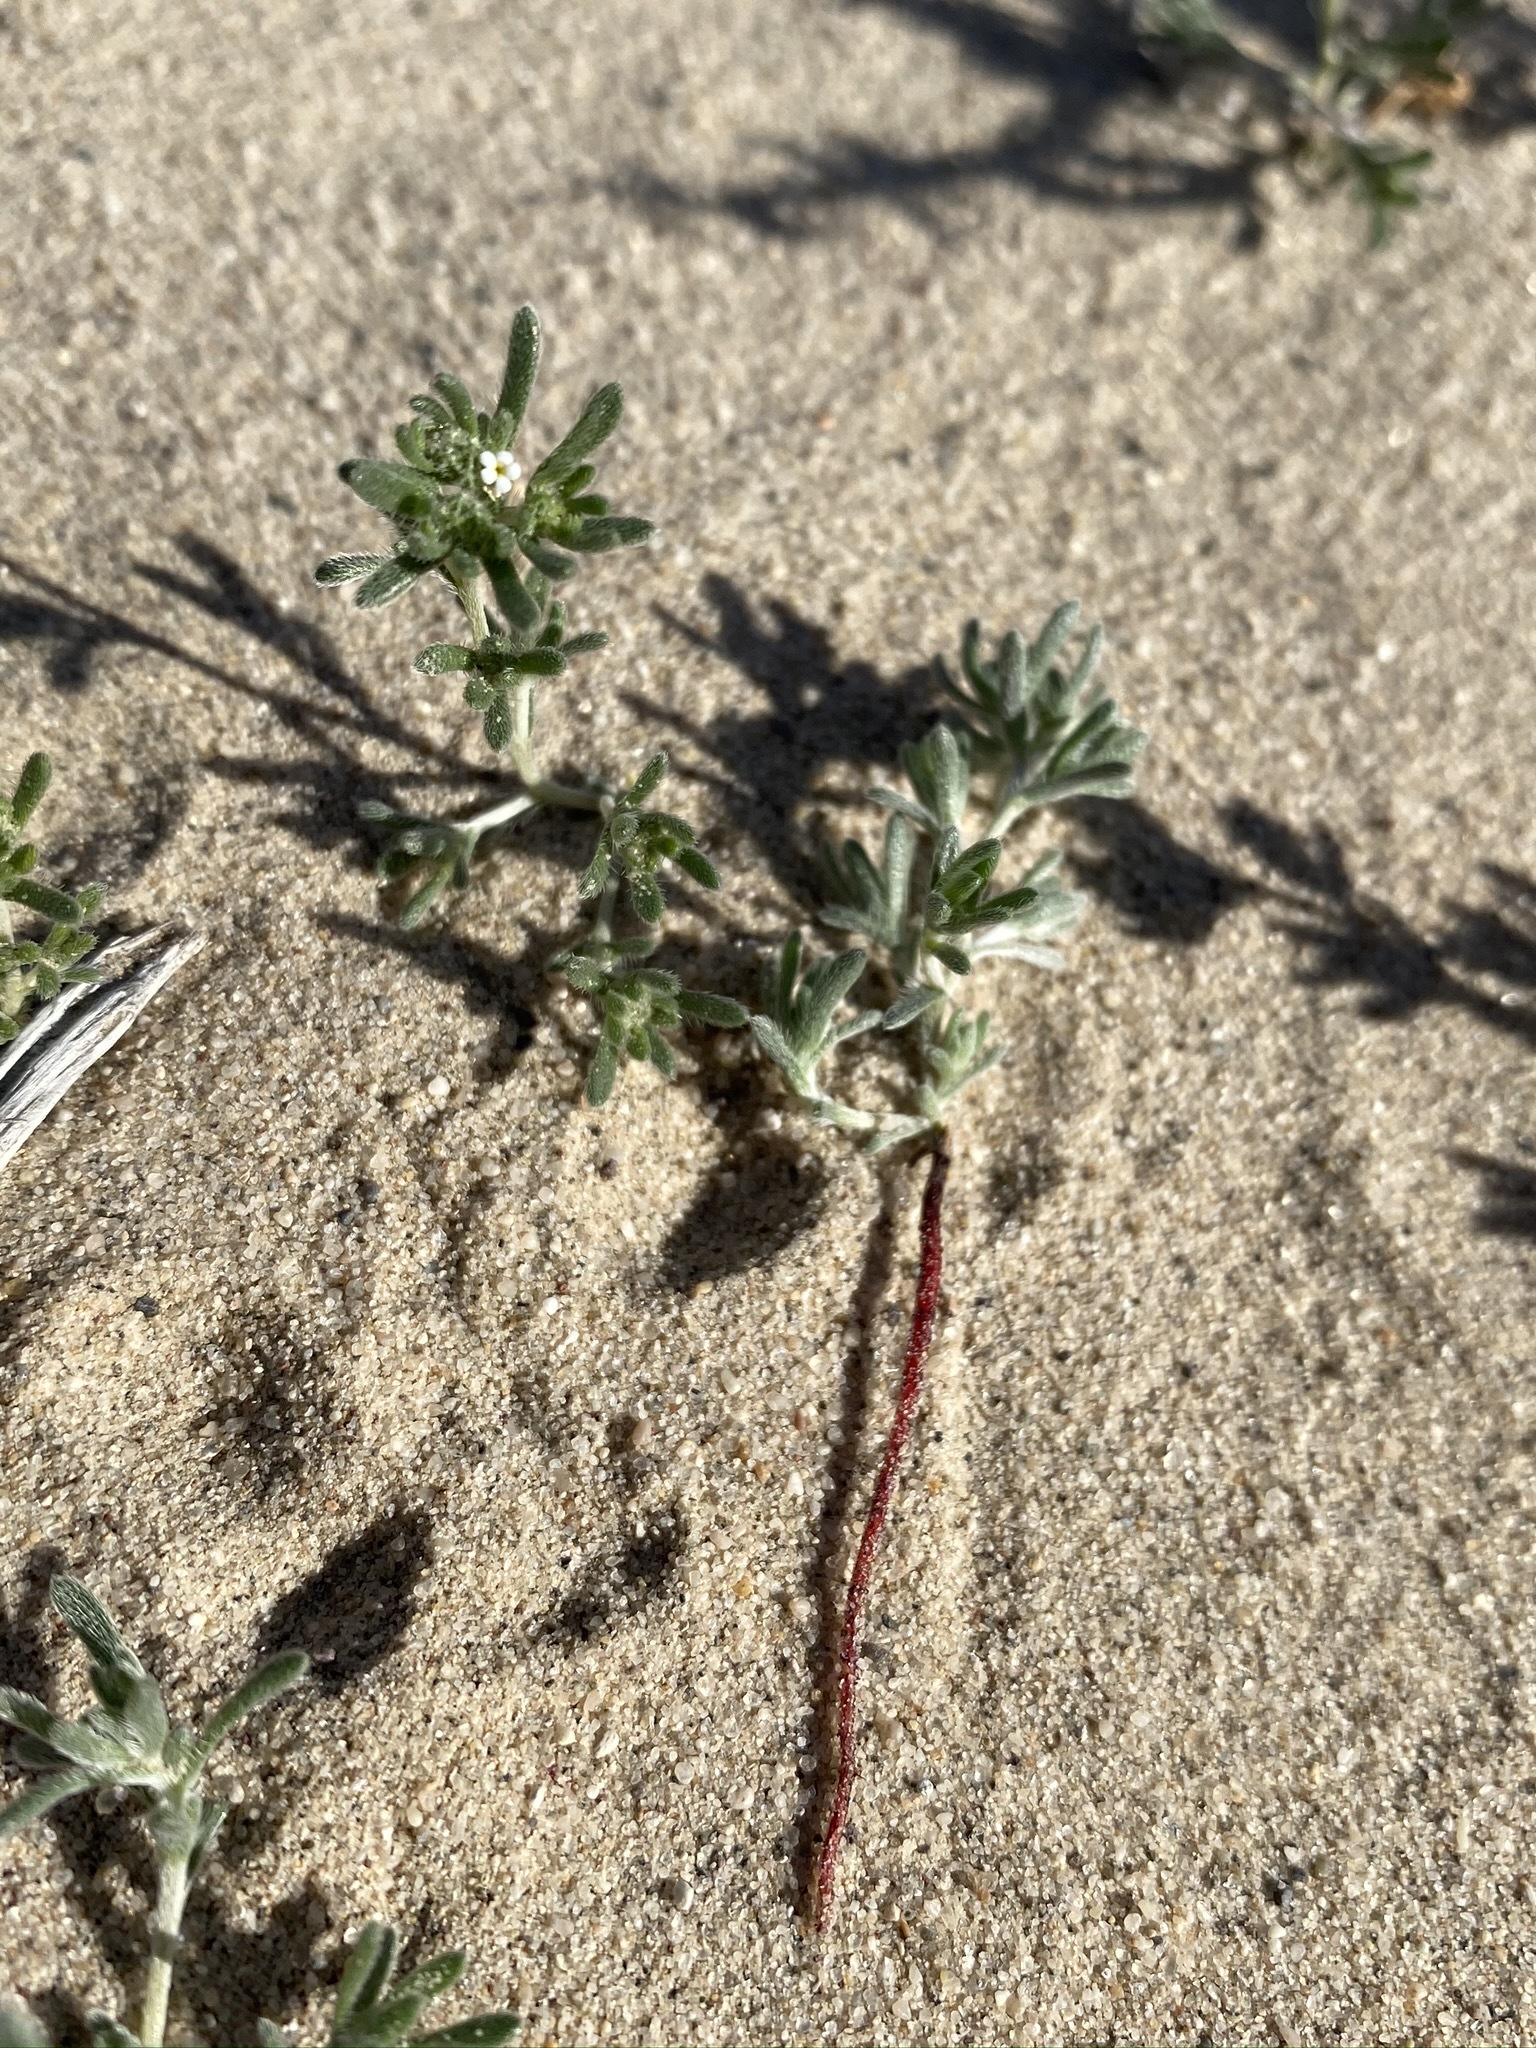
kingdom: Plantae
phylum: Tracheophyta
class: Magnoliopsida
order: Boraginales
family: Boraginaceae
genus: Eremocarya
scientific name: Eremocarya micrantha
